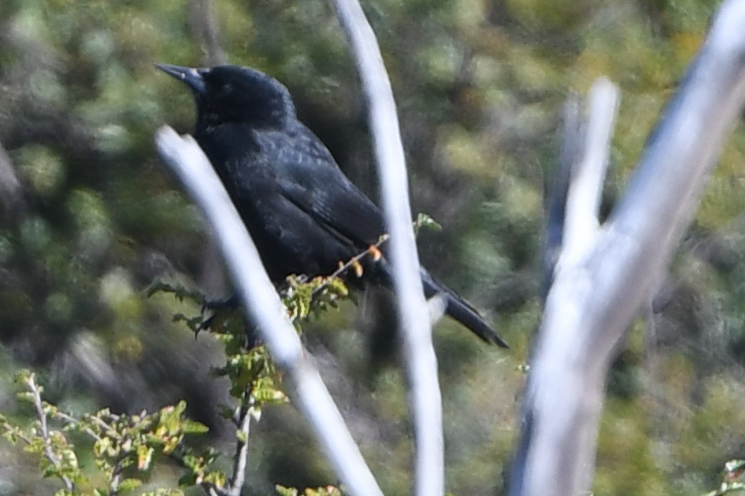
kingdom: Animalia
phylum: Chordata
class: Aves
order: Passeriformes
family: Icteridae
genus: Curaeus
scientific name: Curaeus curaeus
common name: Austral blackbird
